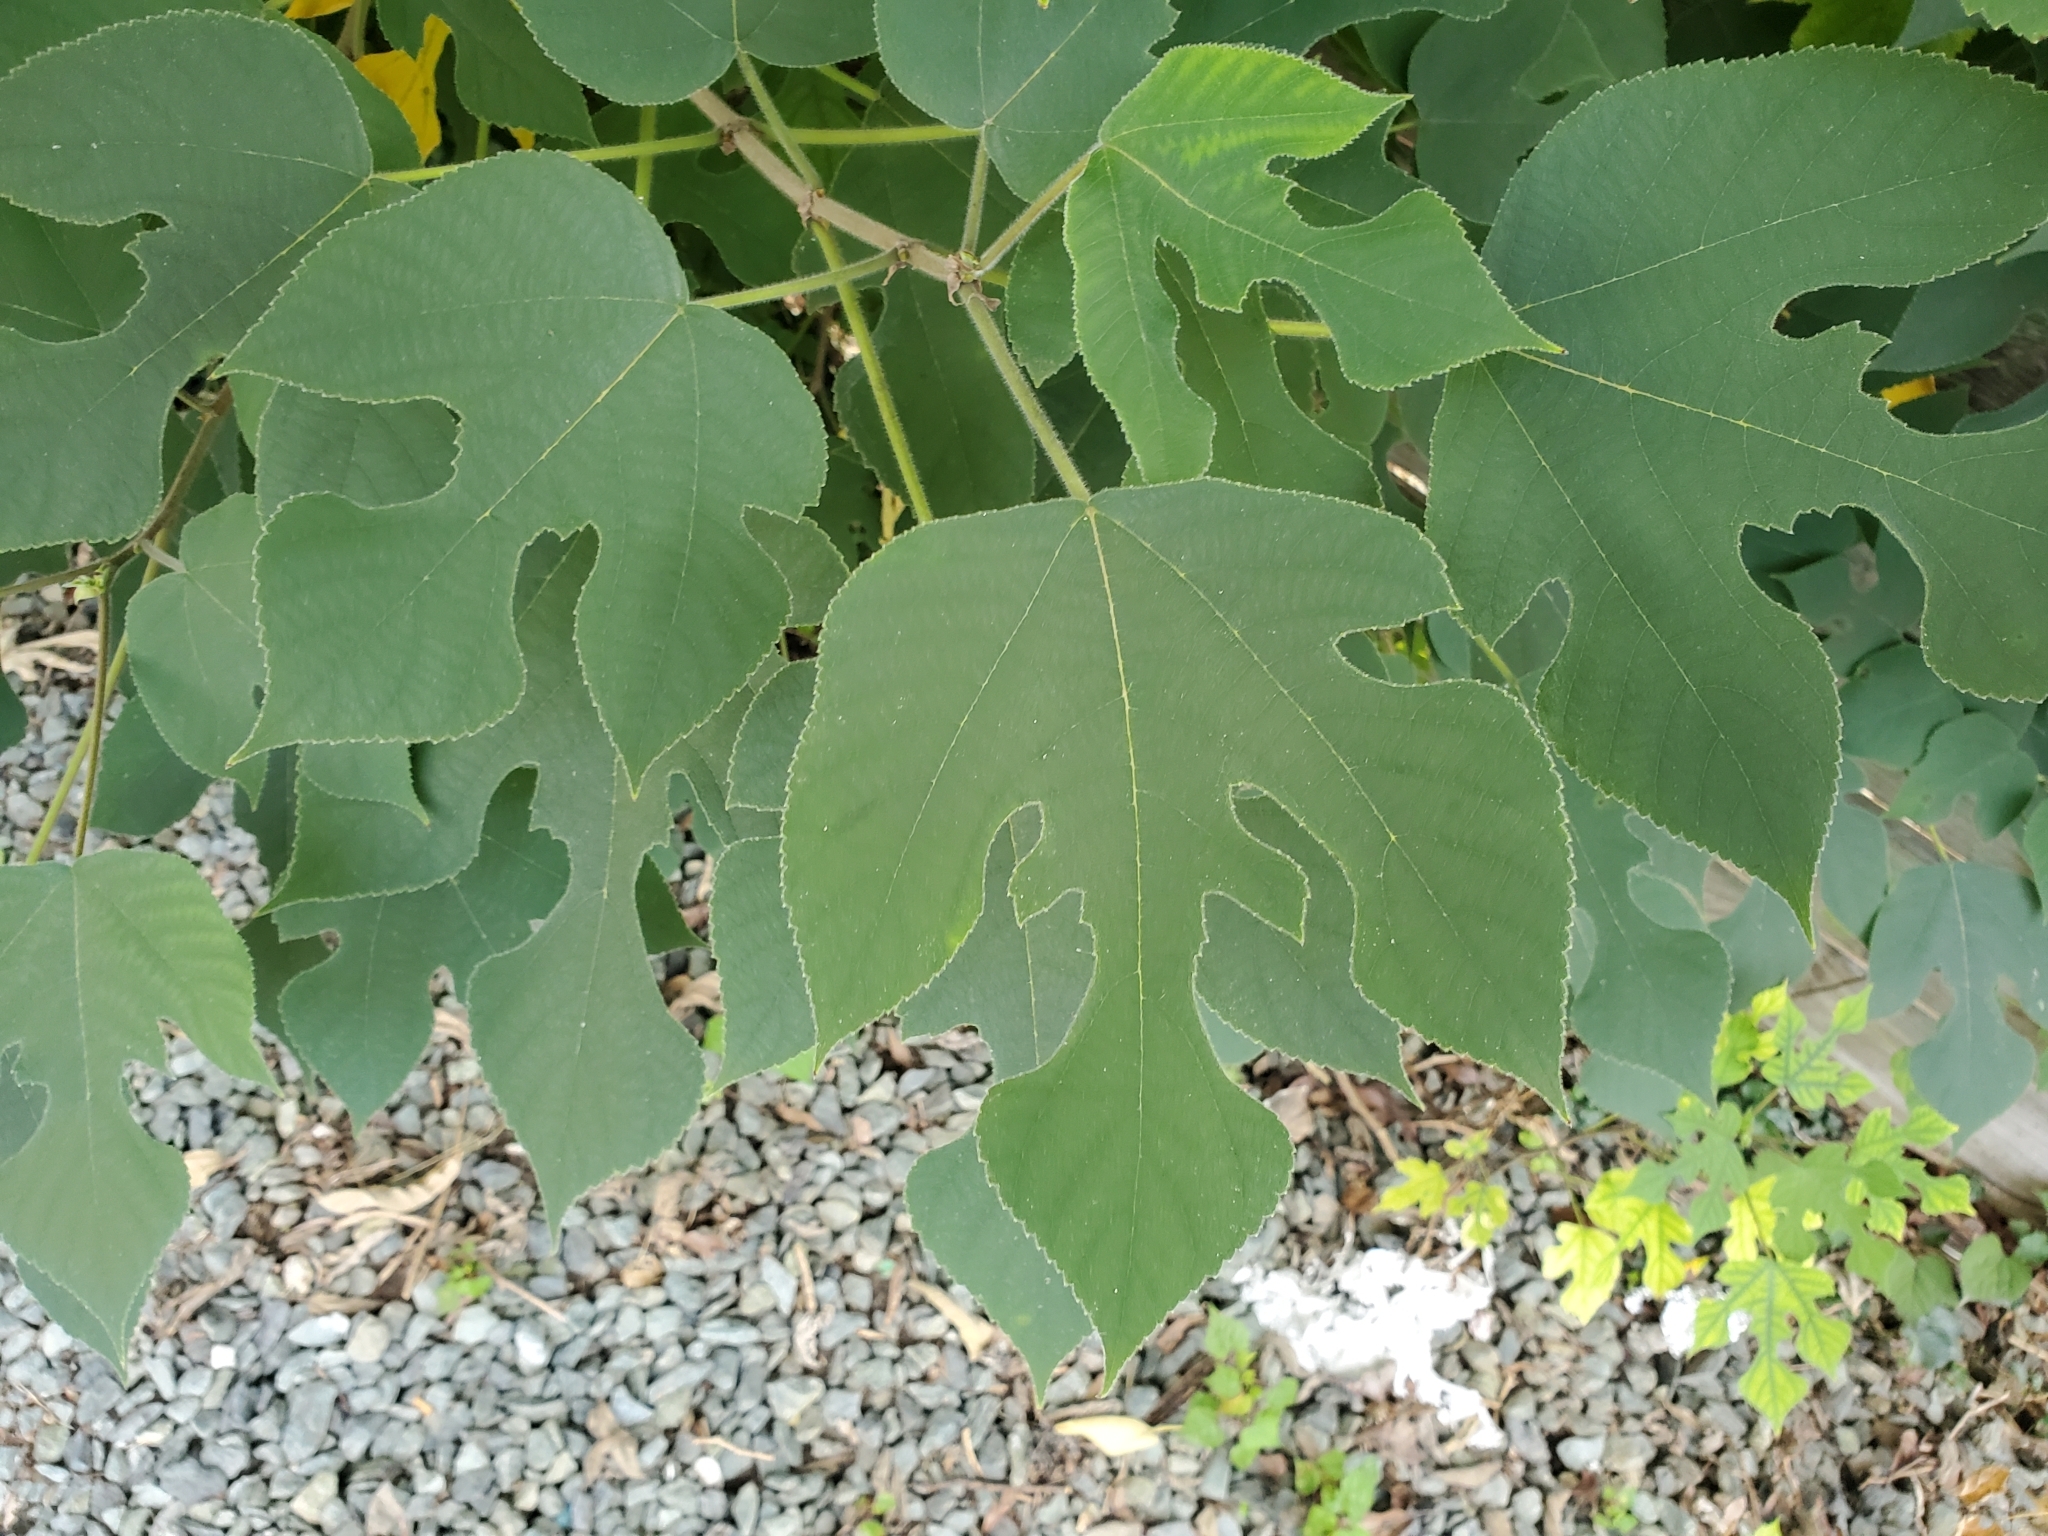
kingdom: Plantae
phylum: Tracheophyta
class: Magnoliopsida
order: Rosales
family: Moraceae
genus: Broussonetia
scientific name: Broussonetia papyrifera
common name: Paper mulberry
